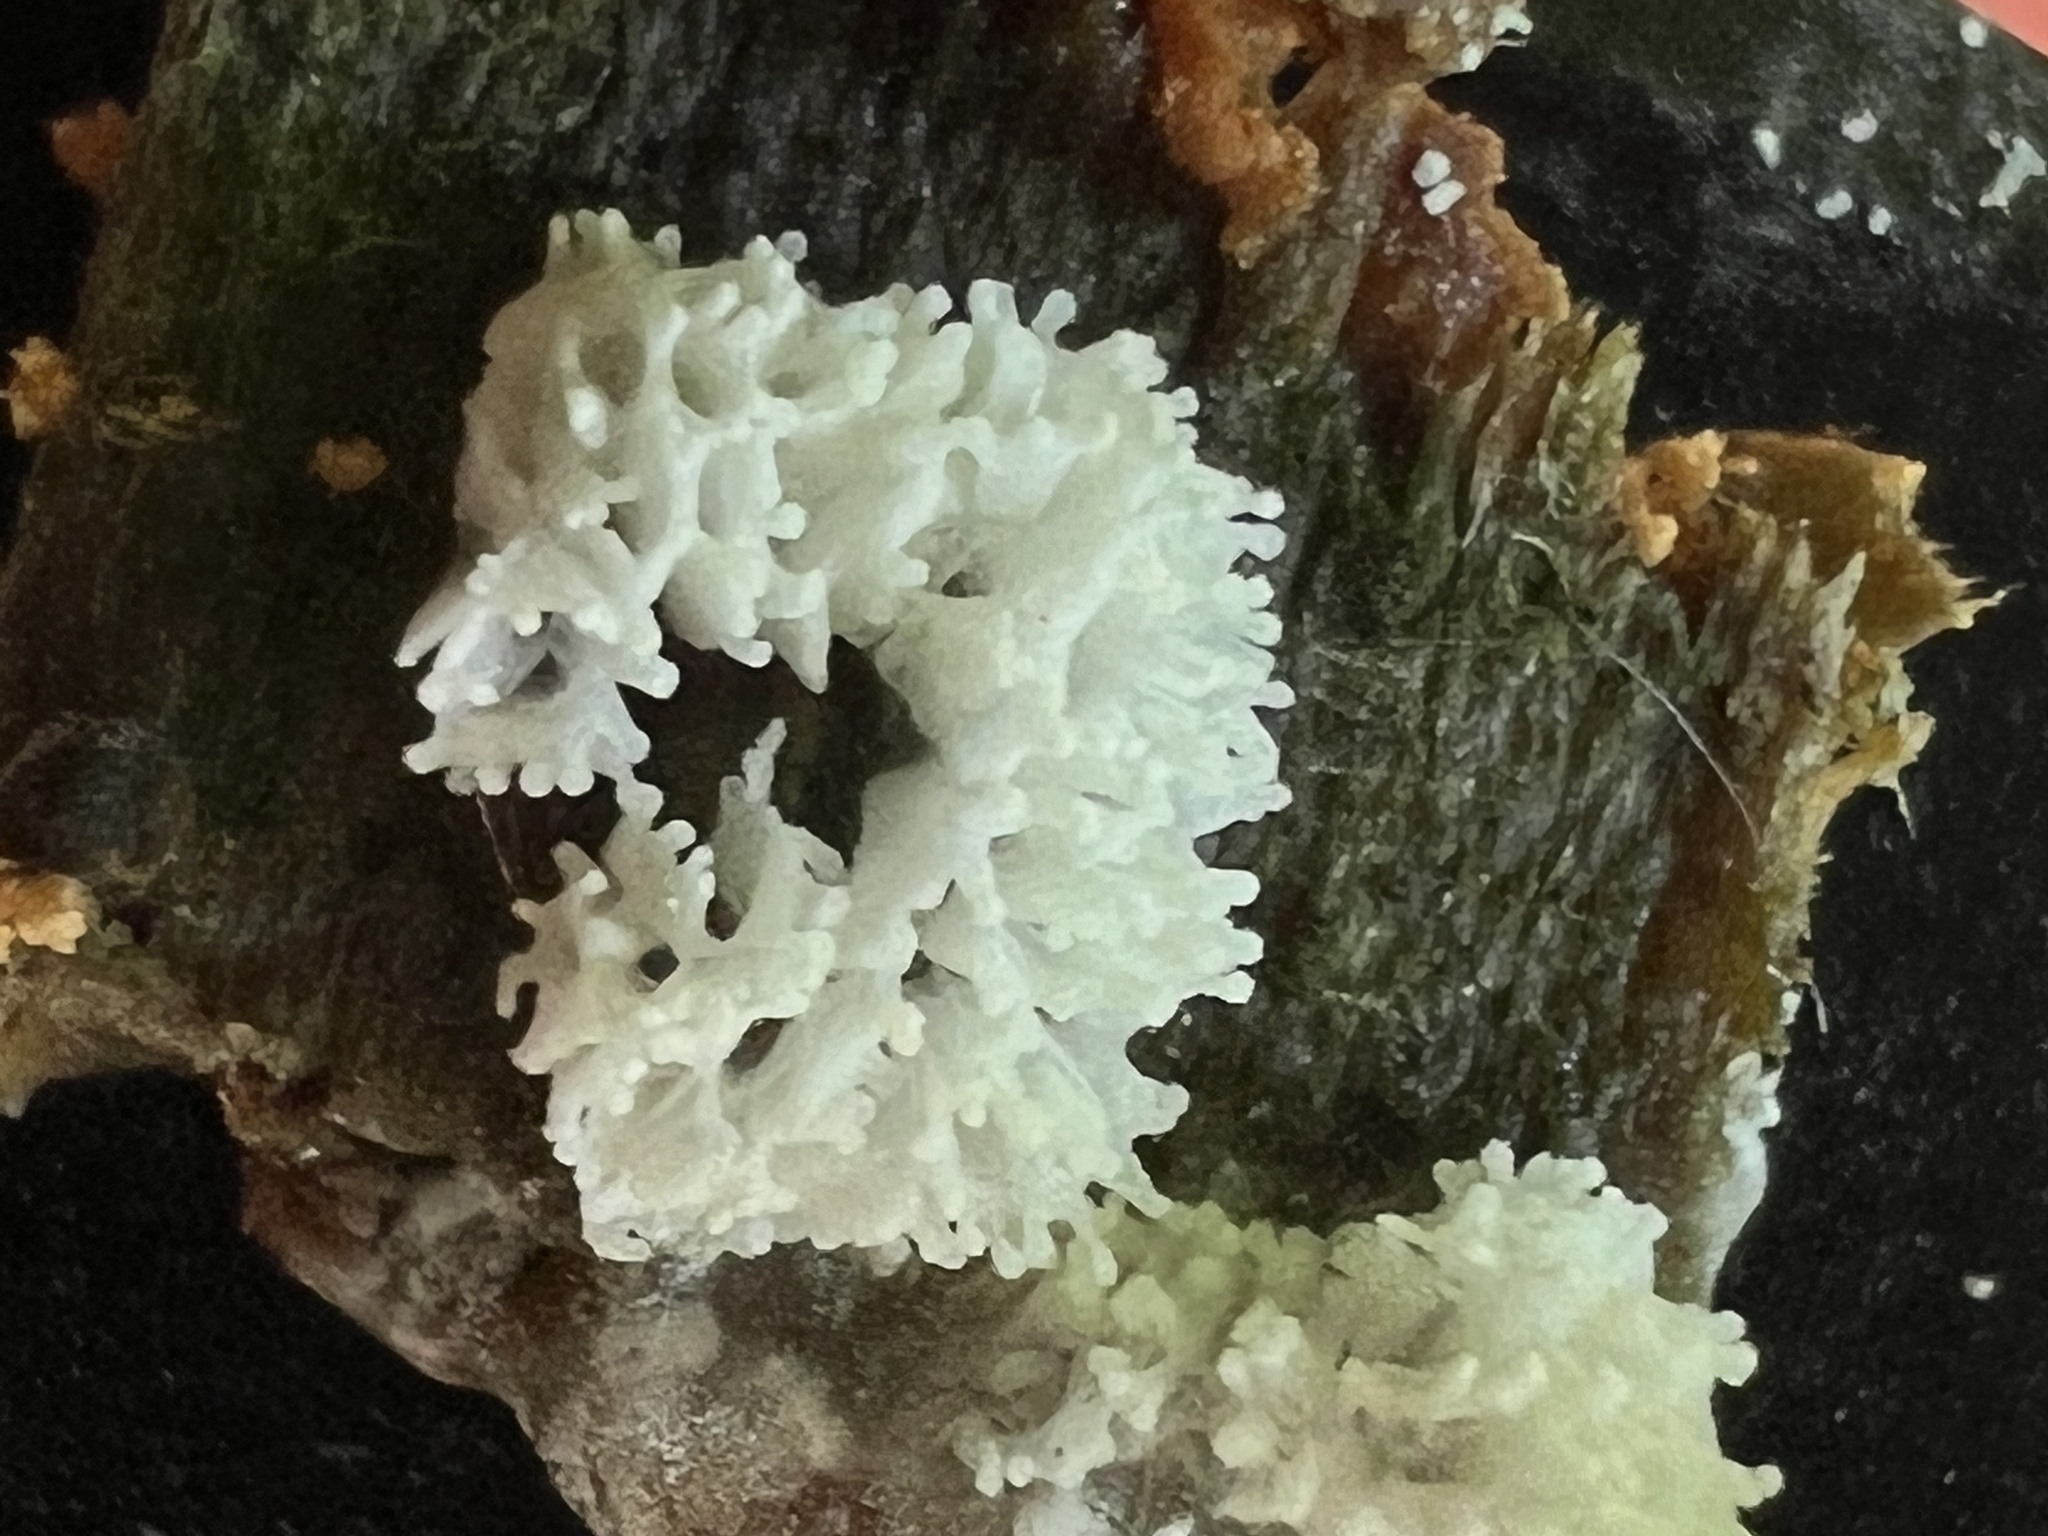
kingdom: Protozoa
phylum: Mycetozoa
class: Protosteliomycetes
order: Ceratiomyxales
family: Ceratiomyxaceae
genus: Ceratiomyxa
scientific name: Ceratiomyxa fruticulosa
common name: Honeycomb coral slime mold
